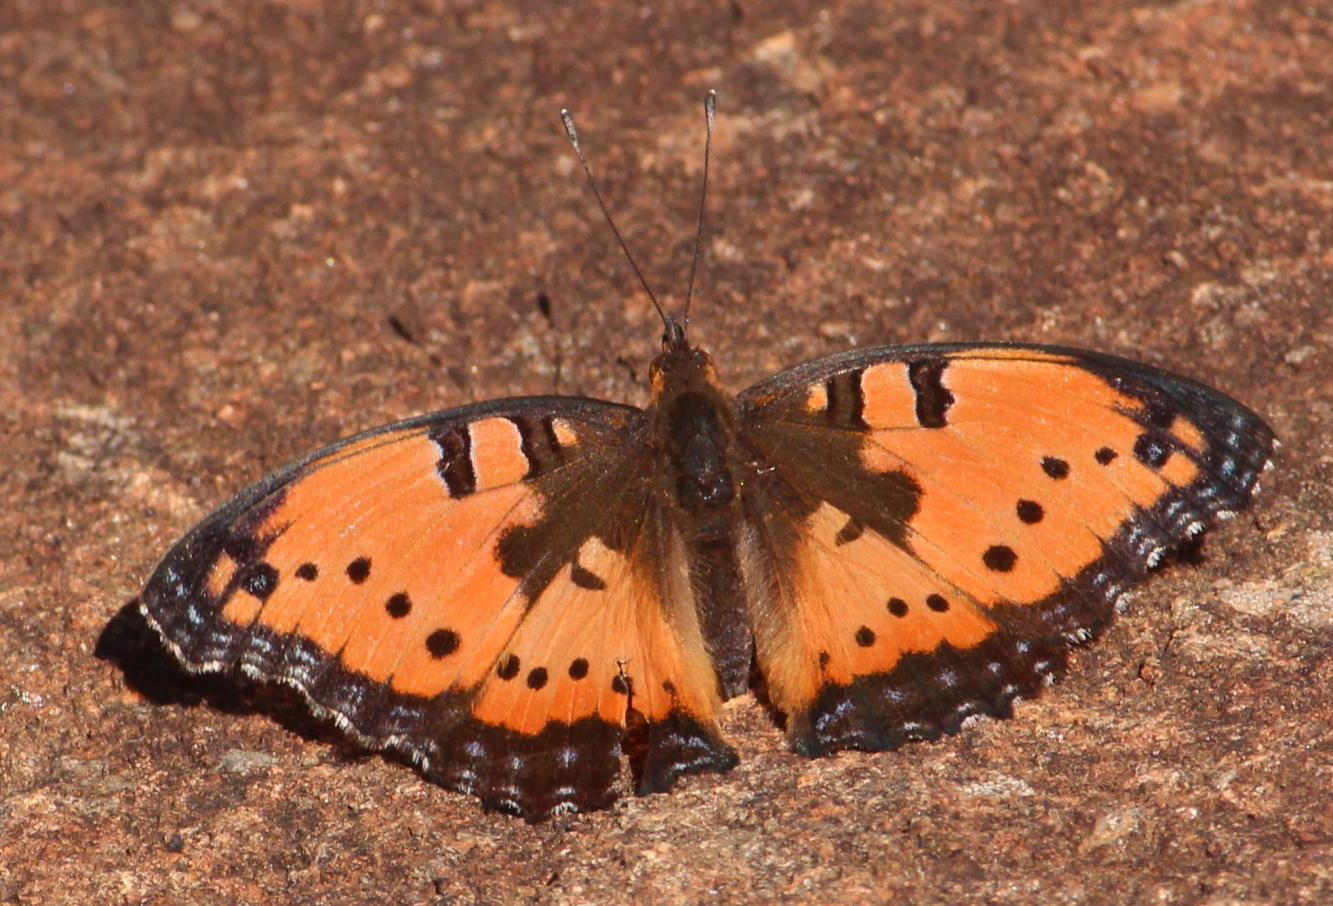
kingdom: Animalia
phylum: Arthropoda
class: Insecta
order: Lepidoptera
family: Nymphalidae
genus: Precis
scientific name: Precis octavia
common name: Gaudy commodore
